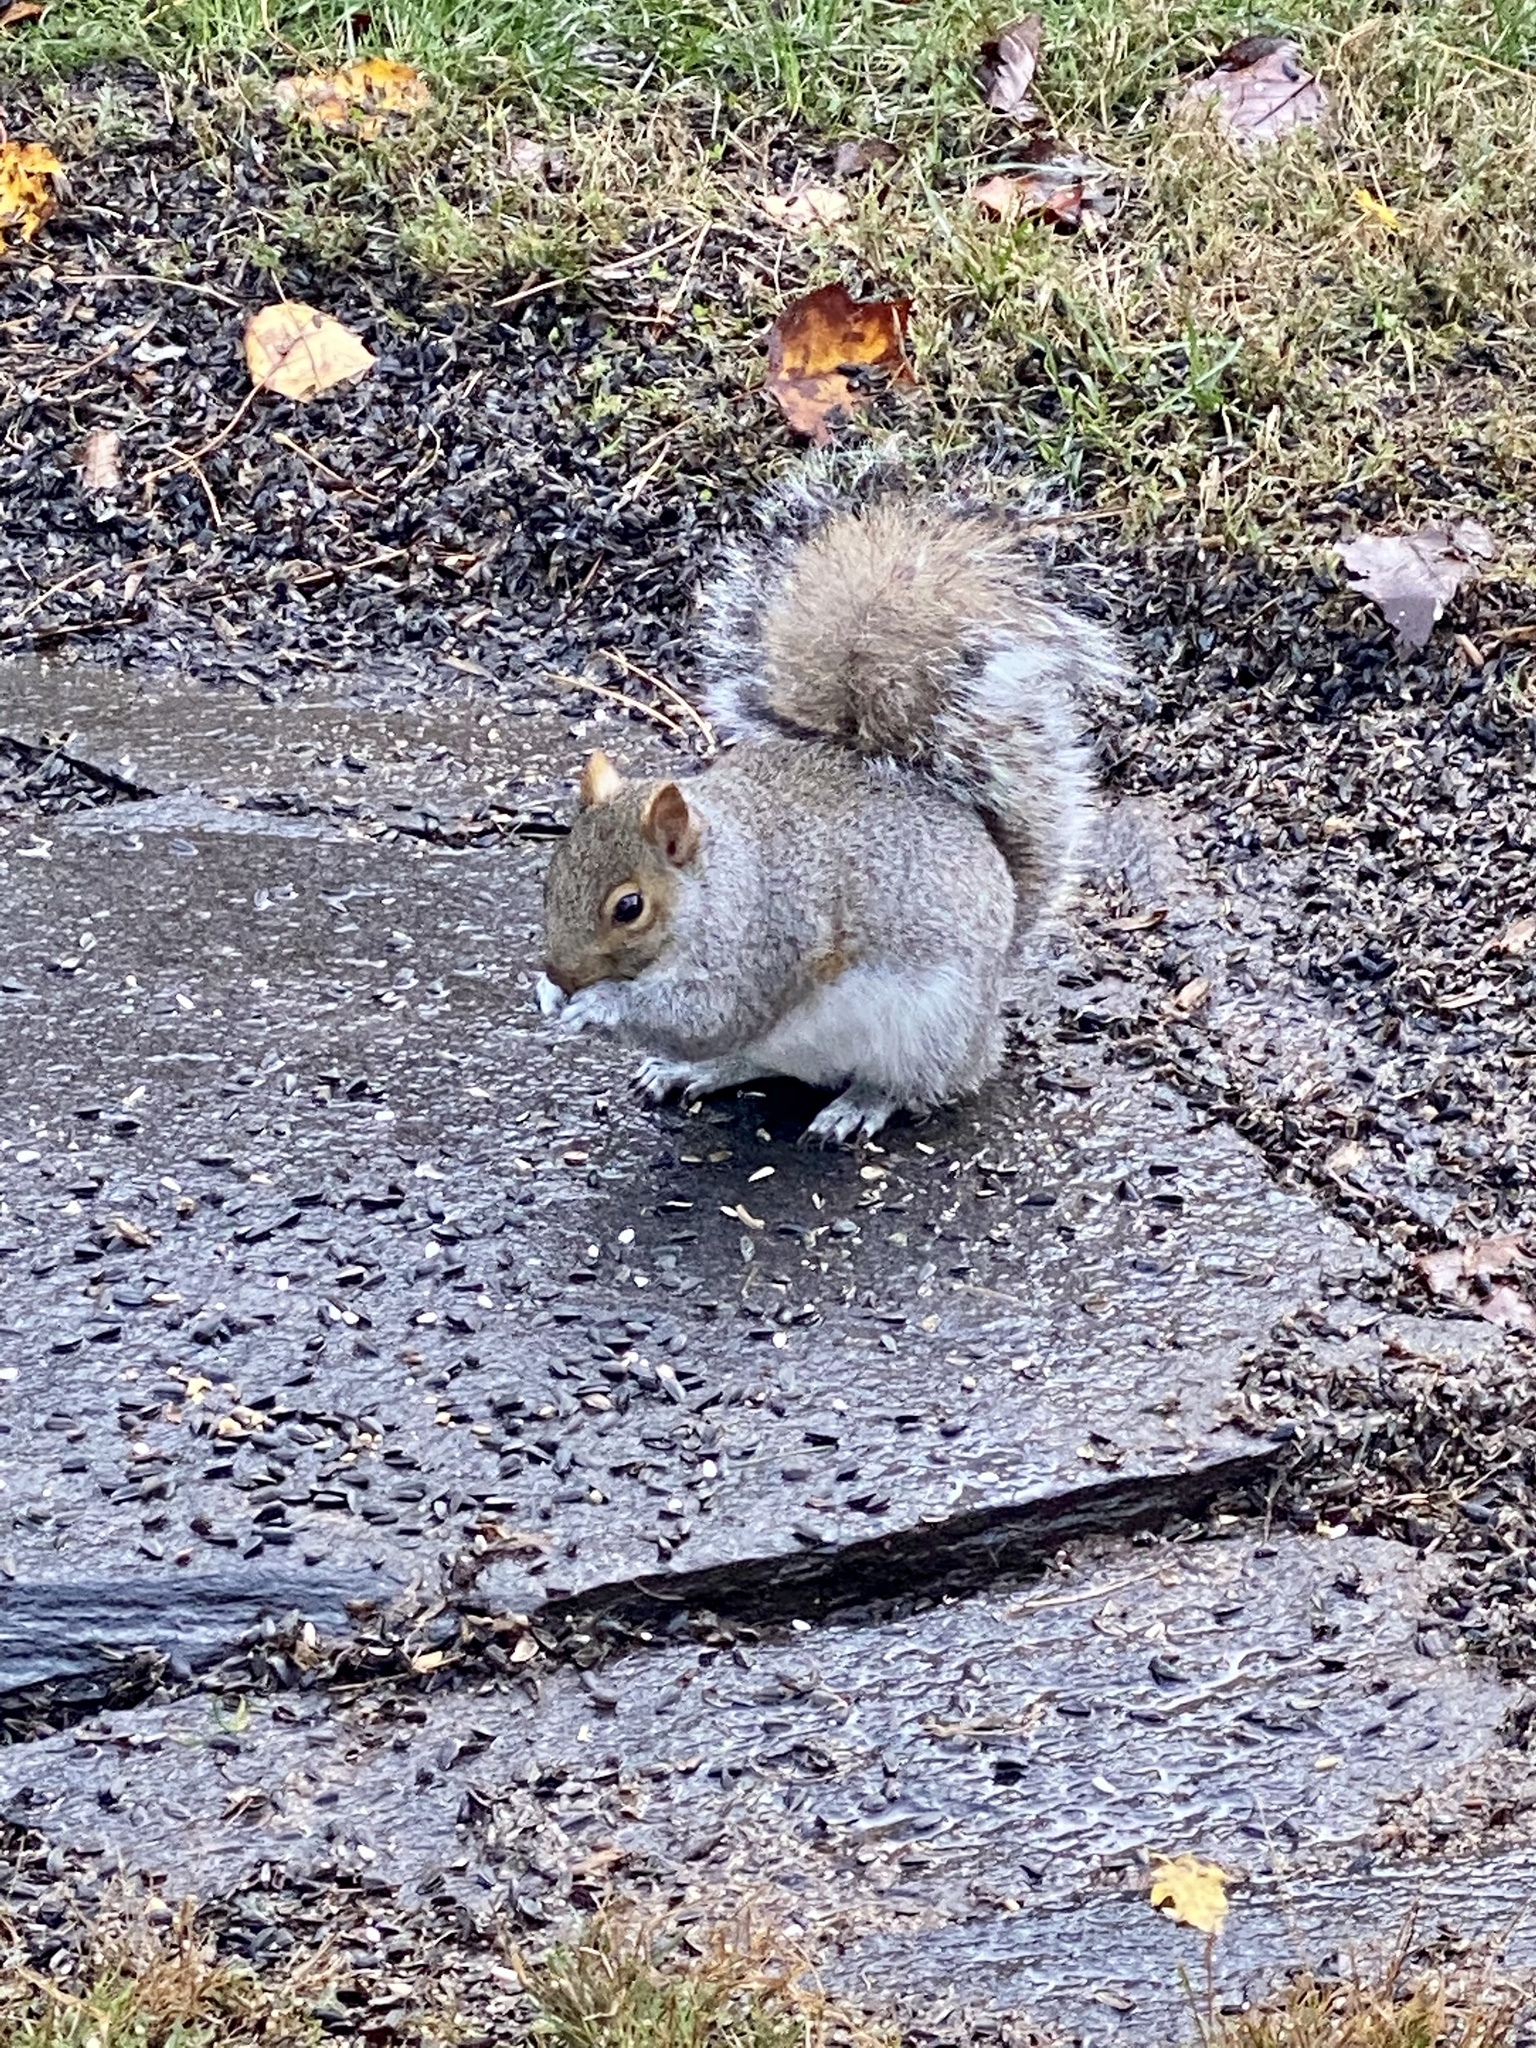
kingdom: Animalia
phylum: Chordata
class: Mammalia
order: Rodentia
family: Sciuridae
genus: Sciurus
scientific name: Sciurus carolinensis
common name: Eastern gray squirrel
